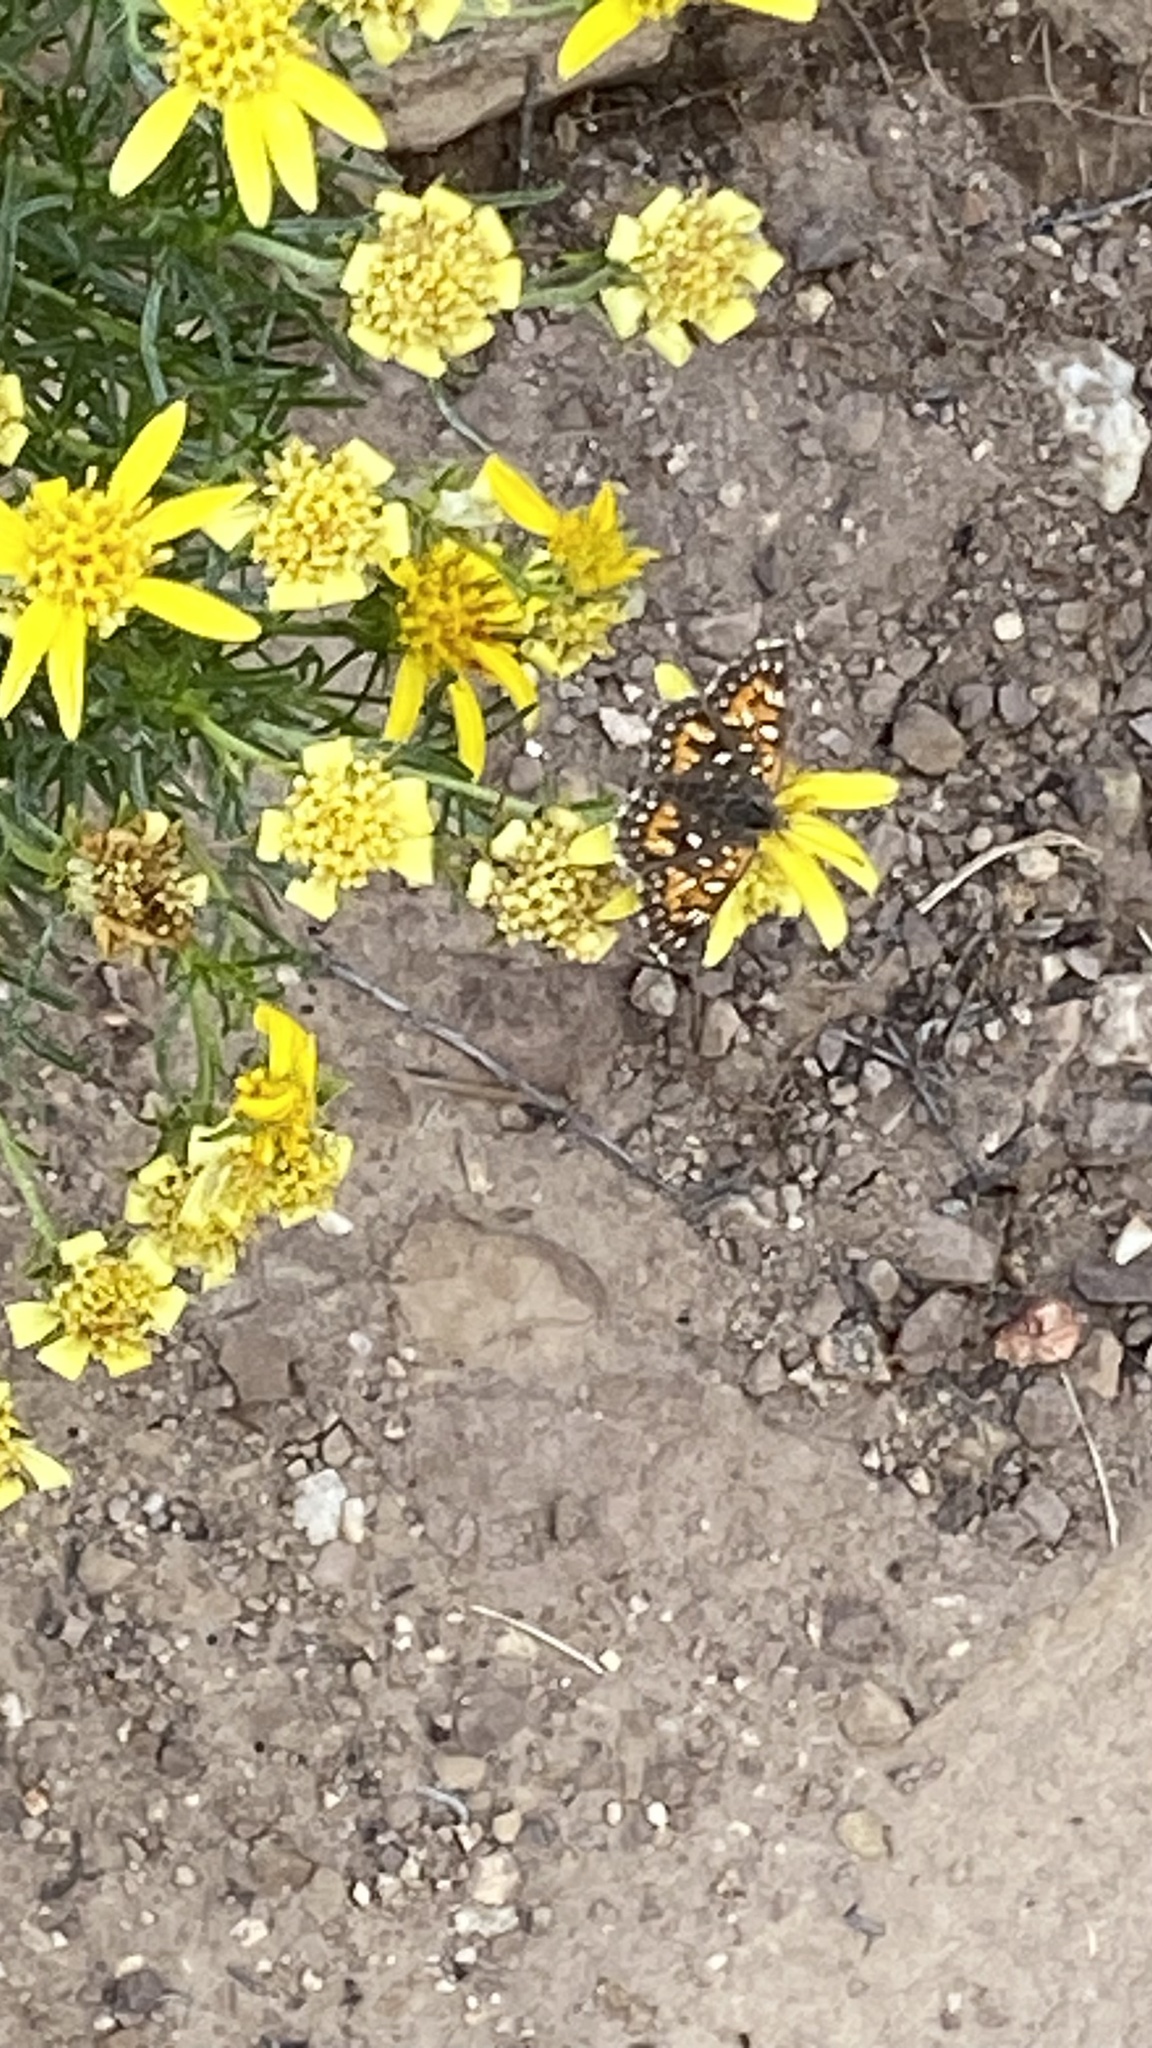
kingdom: Animalia
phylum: Arthropoda
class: Insecta
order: Lepidoptera
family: Riodinidae
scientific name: Riodinidae
